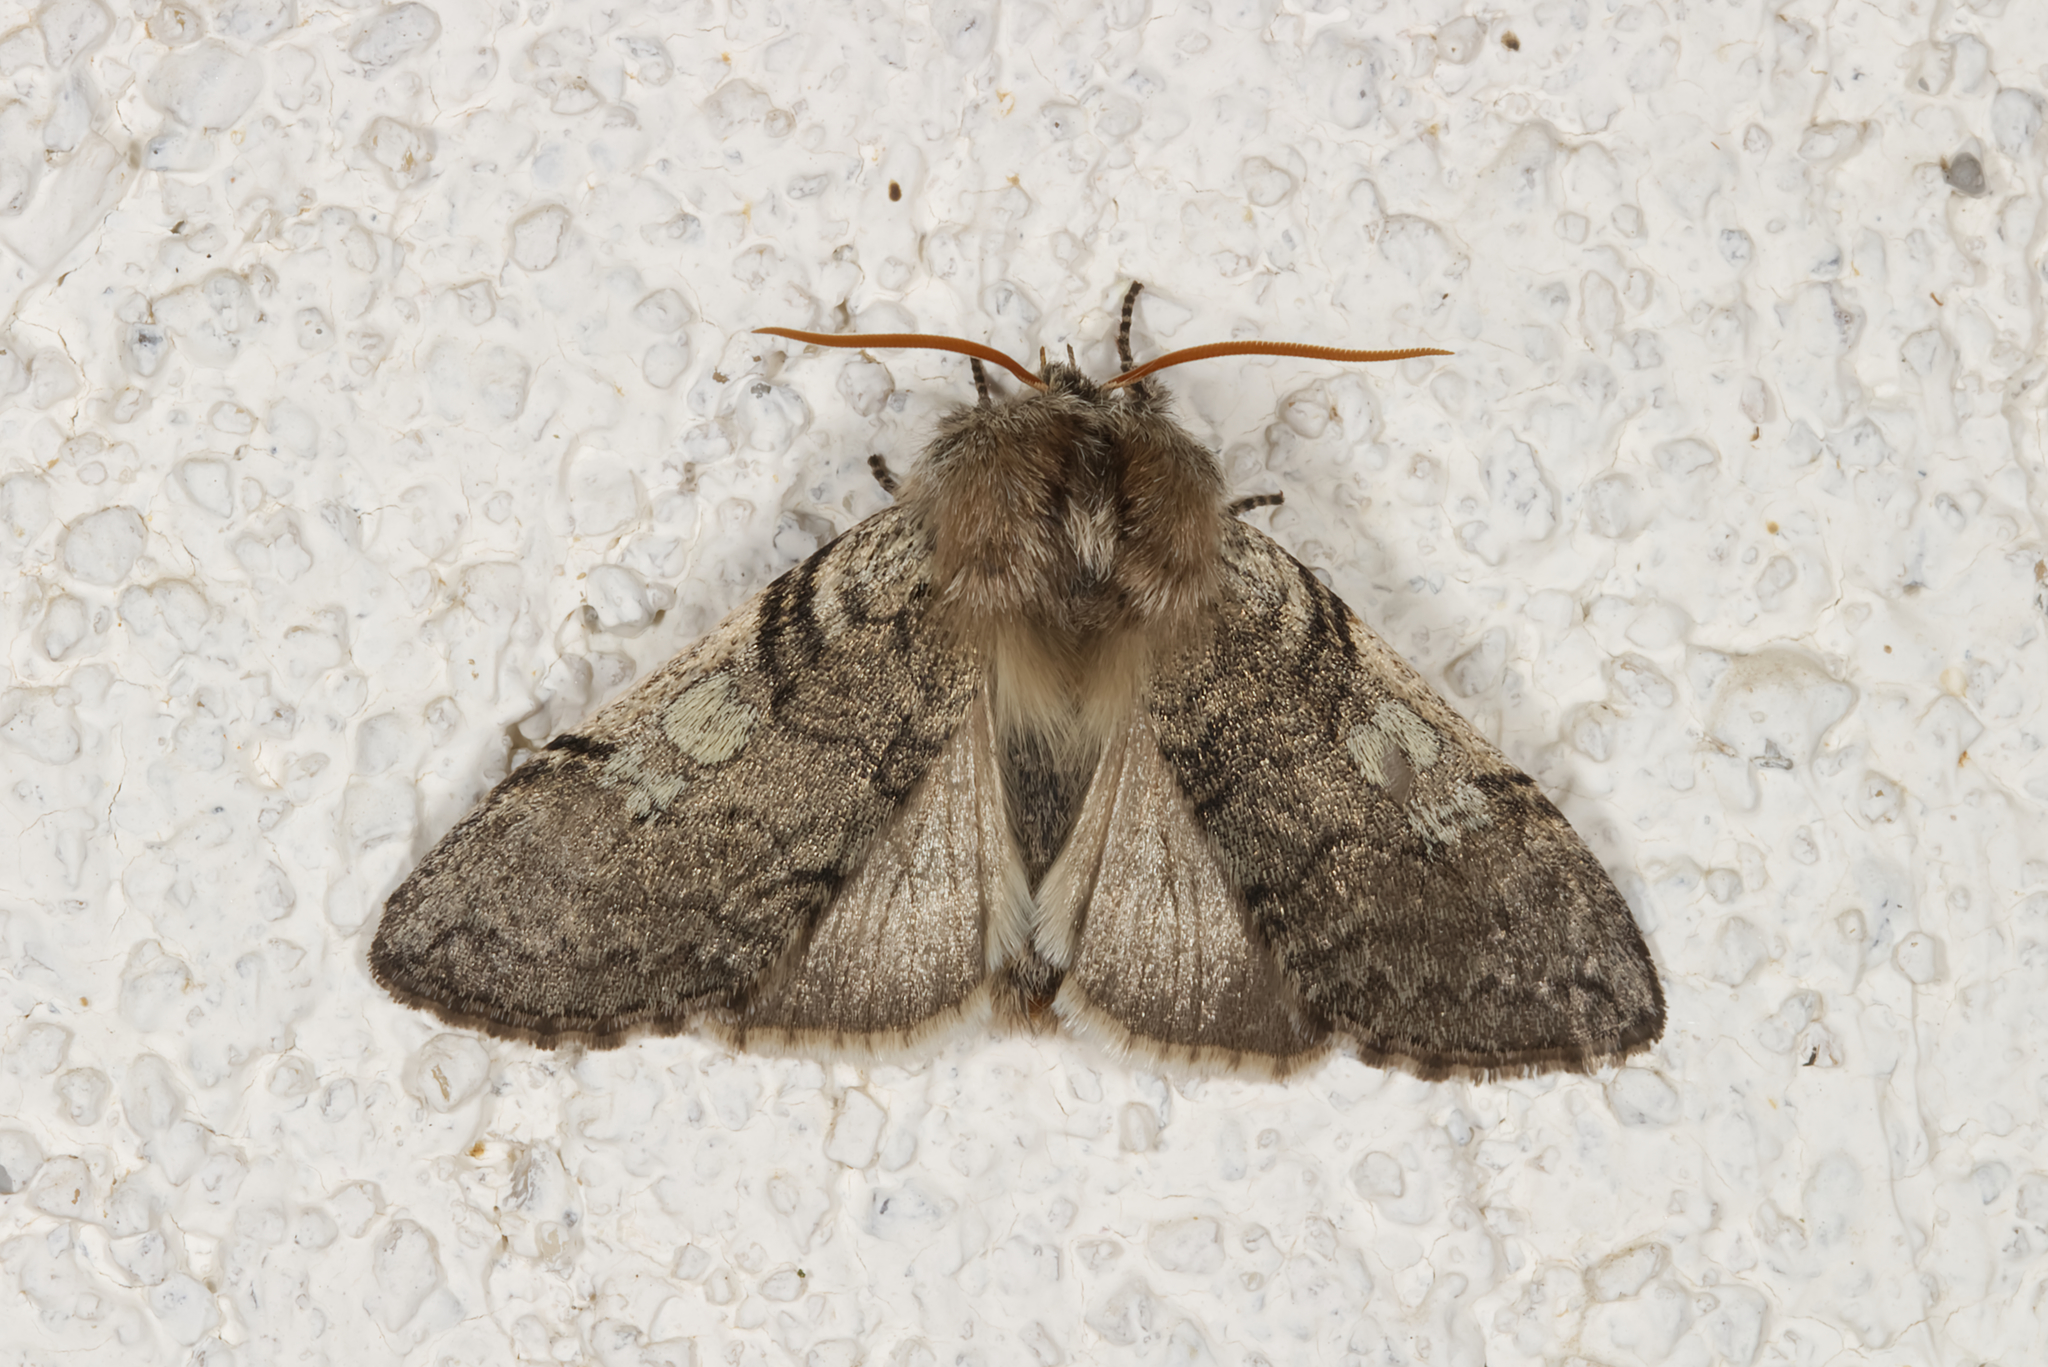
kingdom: Animalia
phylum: Arthropoda
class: Insecta
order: Lepidoptera
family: Drepanidae
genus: Achlya
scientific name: Achlya flavicornis
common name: Yellow horned
